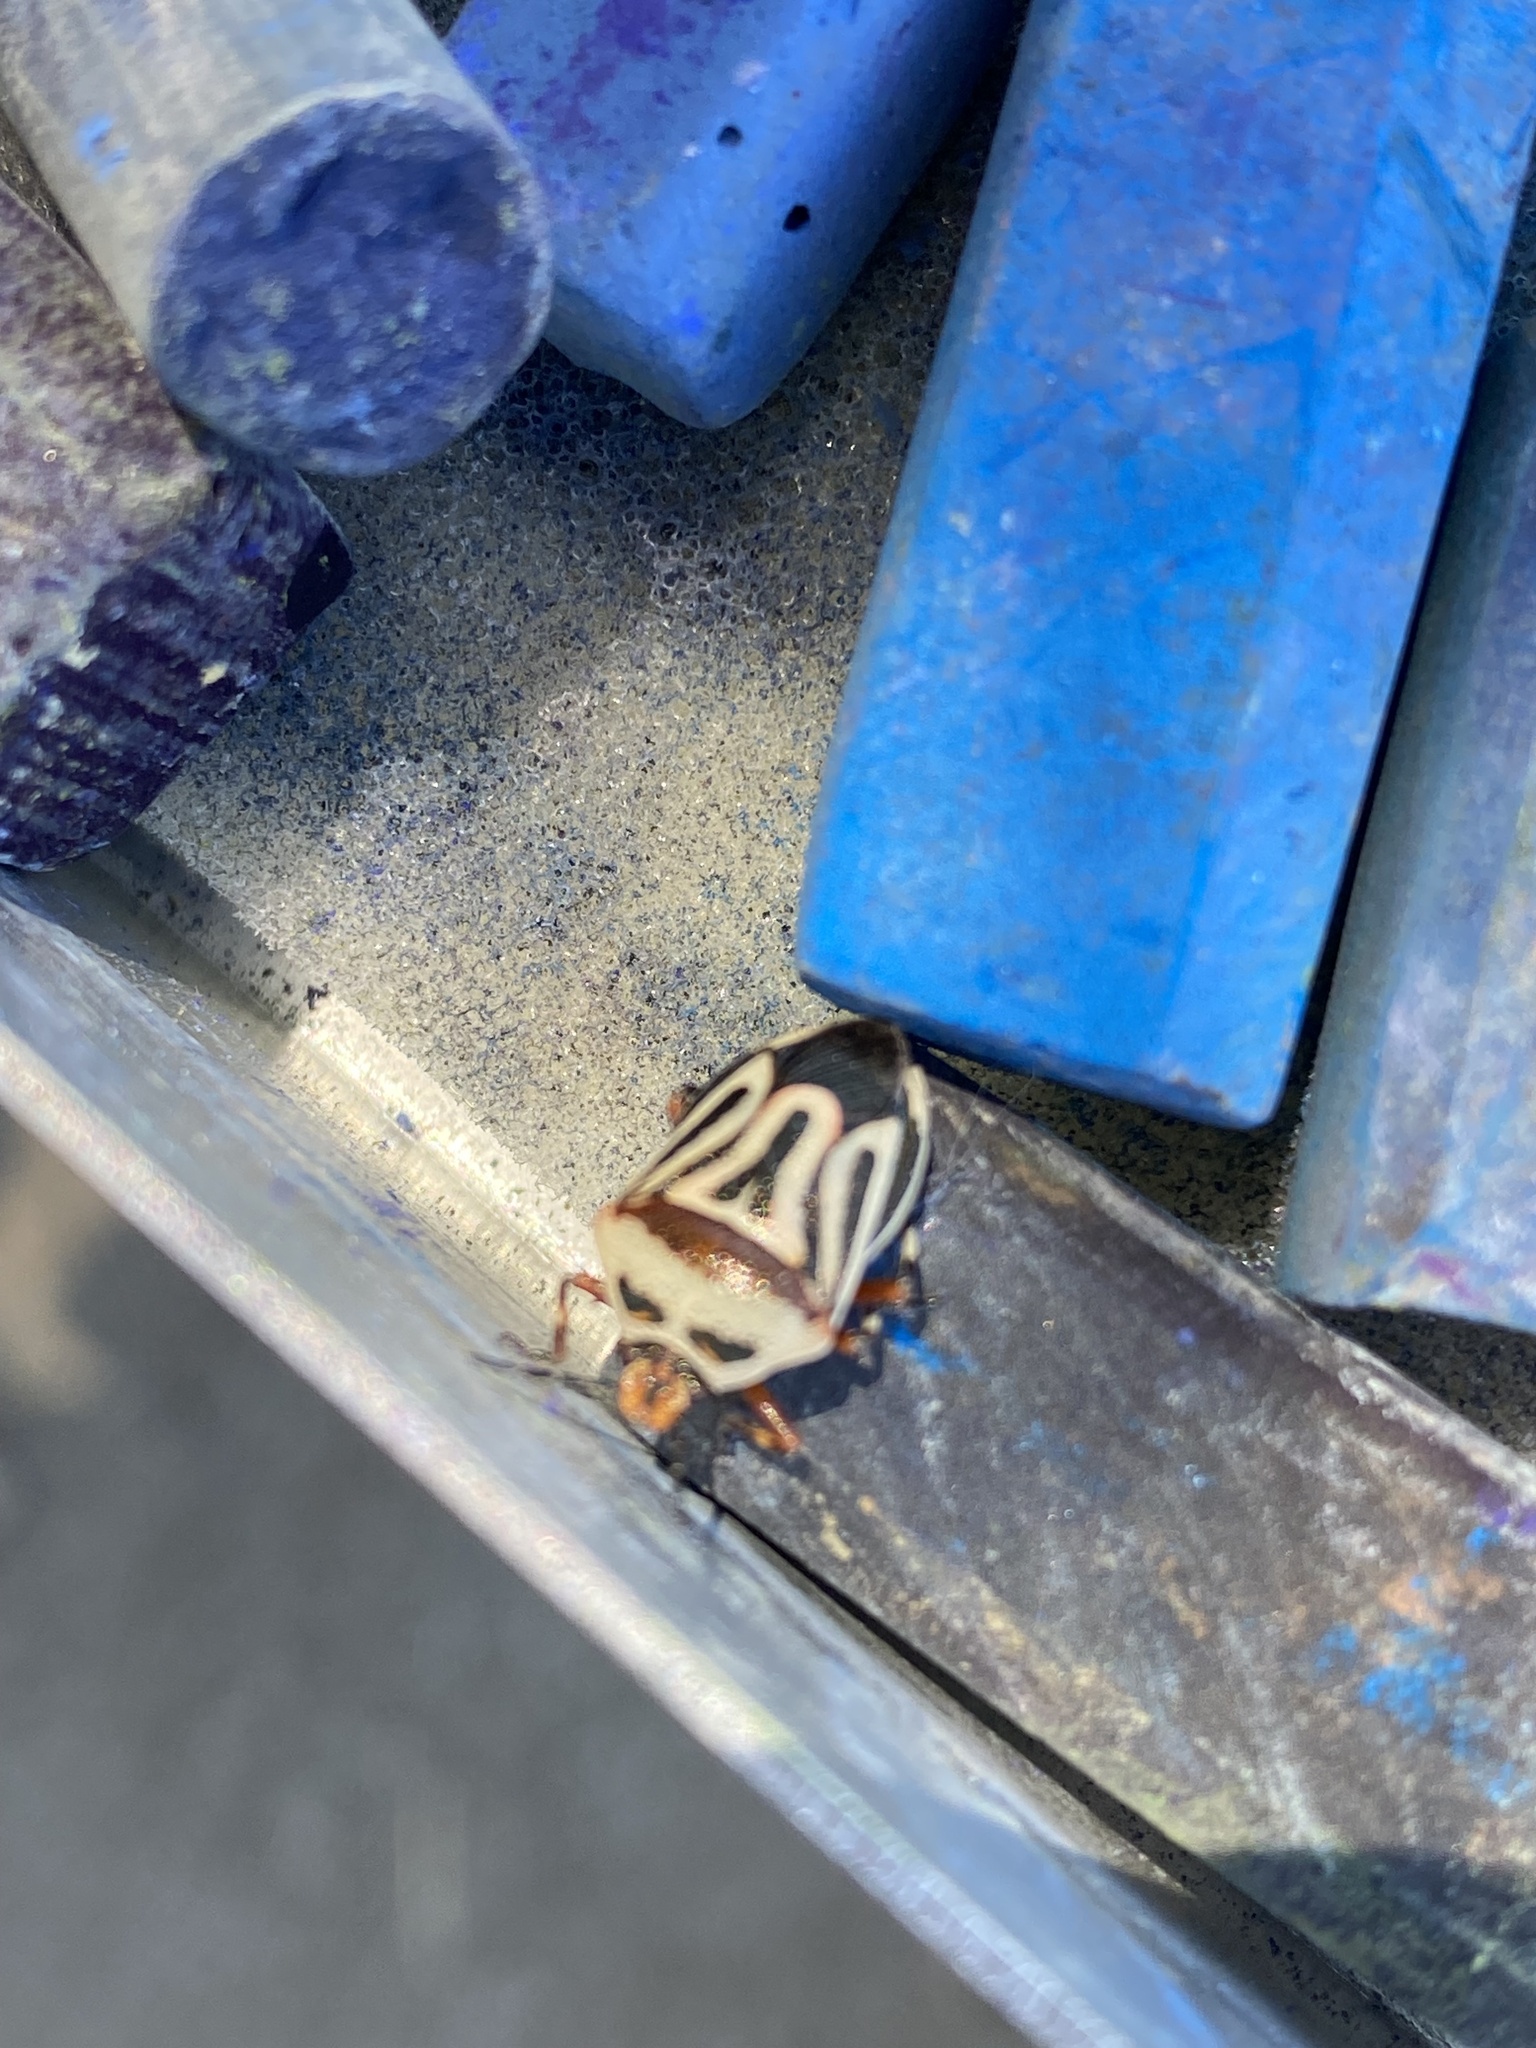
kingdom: Animalia
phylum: Arthropoda
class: Insecta
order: Hemiptera
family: Pentatomidae
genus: Perillus
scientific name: Perillus bioculatus
